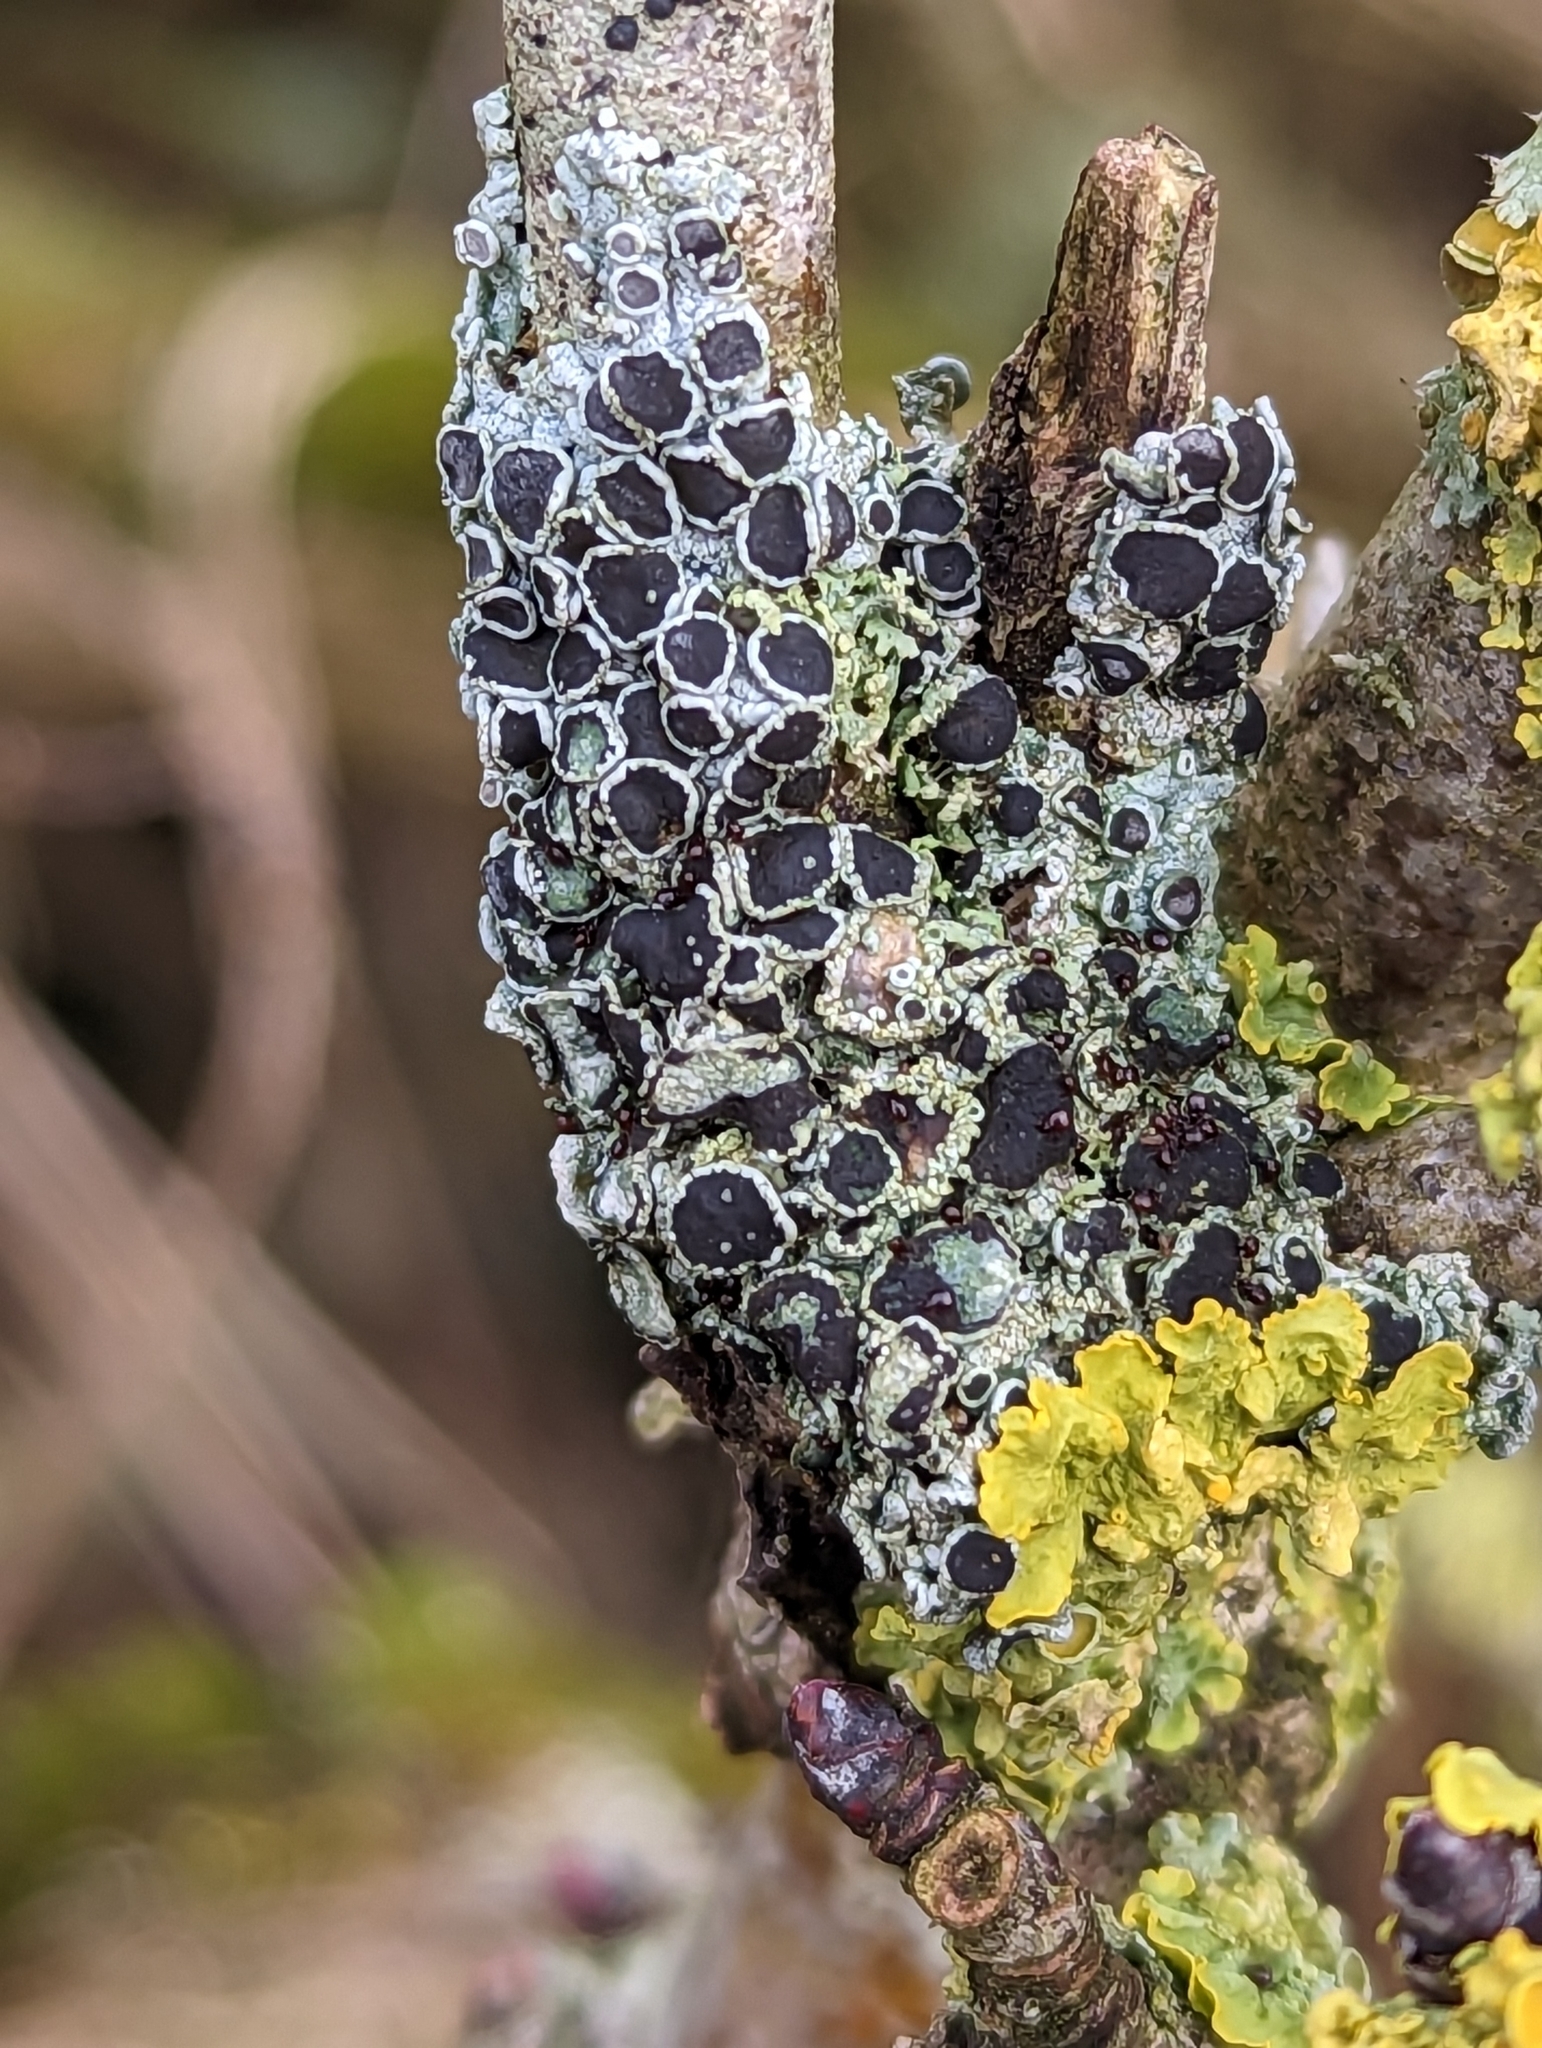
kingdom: Fungi
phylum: Ascomycota
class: Lecanoromycetes
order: Caliciales
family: Physciaceae
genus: Physcia
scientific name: Physcia aipolia
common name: Hoary rosette lichen
